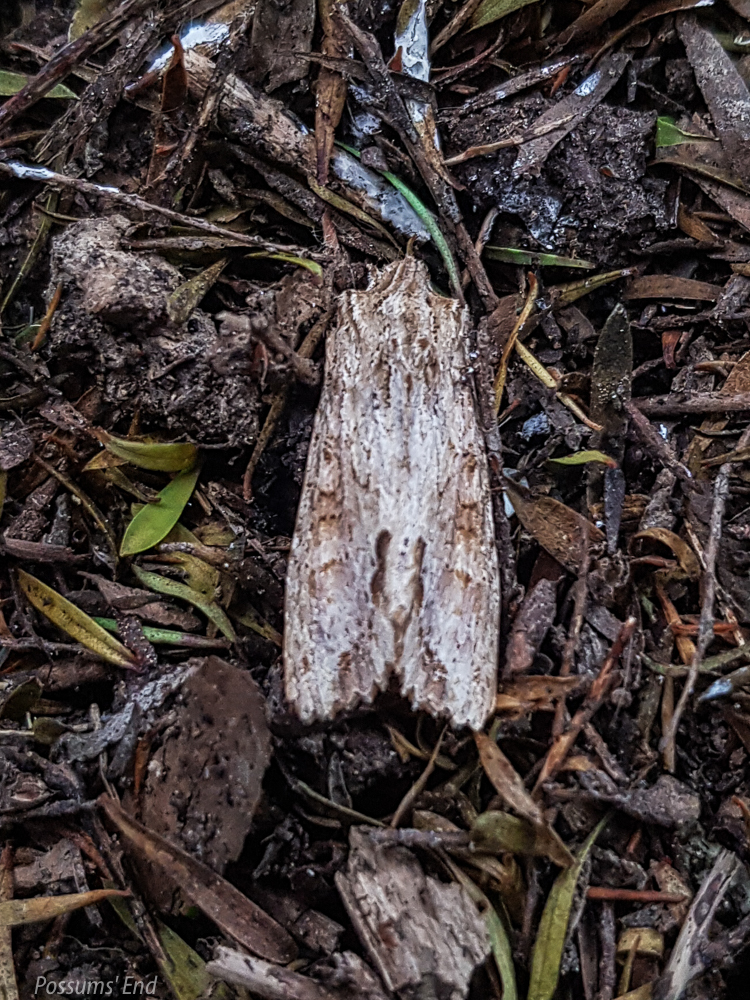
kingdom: Animalia
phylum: Arthropoda
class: Insecta
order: Lepidoptera
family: Noctuidae
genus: Ichneutica
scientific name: Ichneutica mollis
